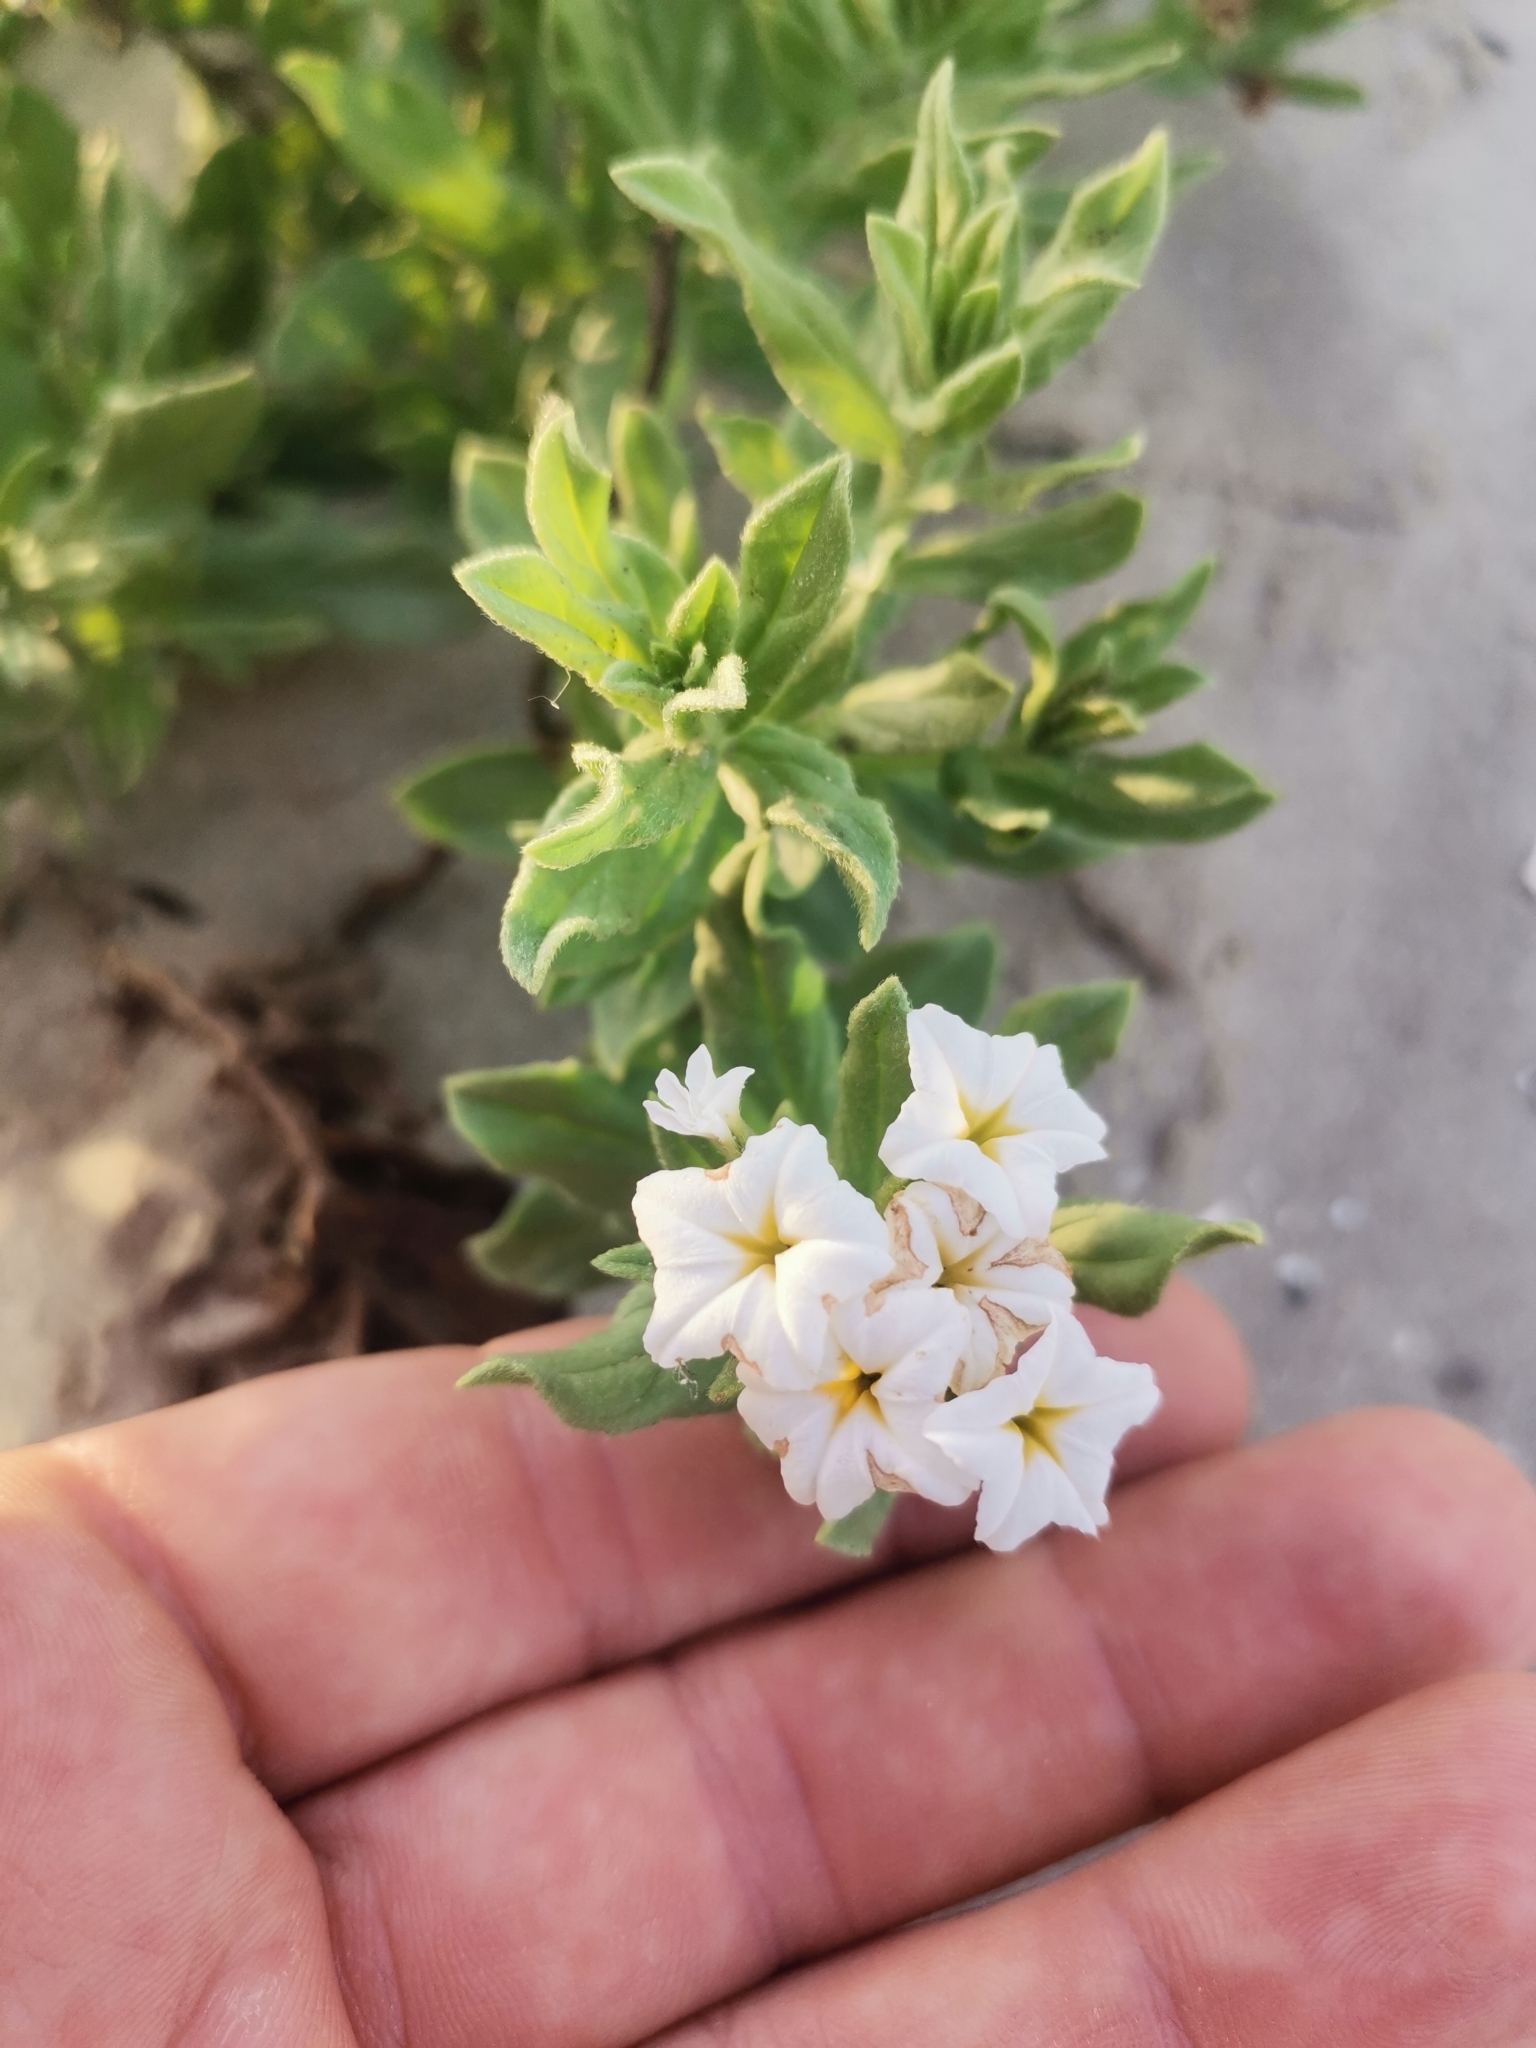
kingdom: Plantae
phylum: Tracheophyta
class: Magnoliopsida
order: Boraginales
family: Heliotropiaceae
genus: Tournefortia
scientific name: Tournefortia sibirica
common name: Siberian sea rosemary
